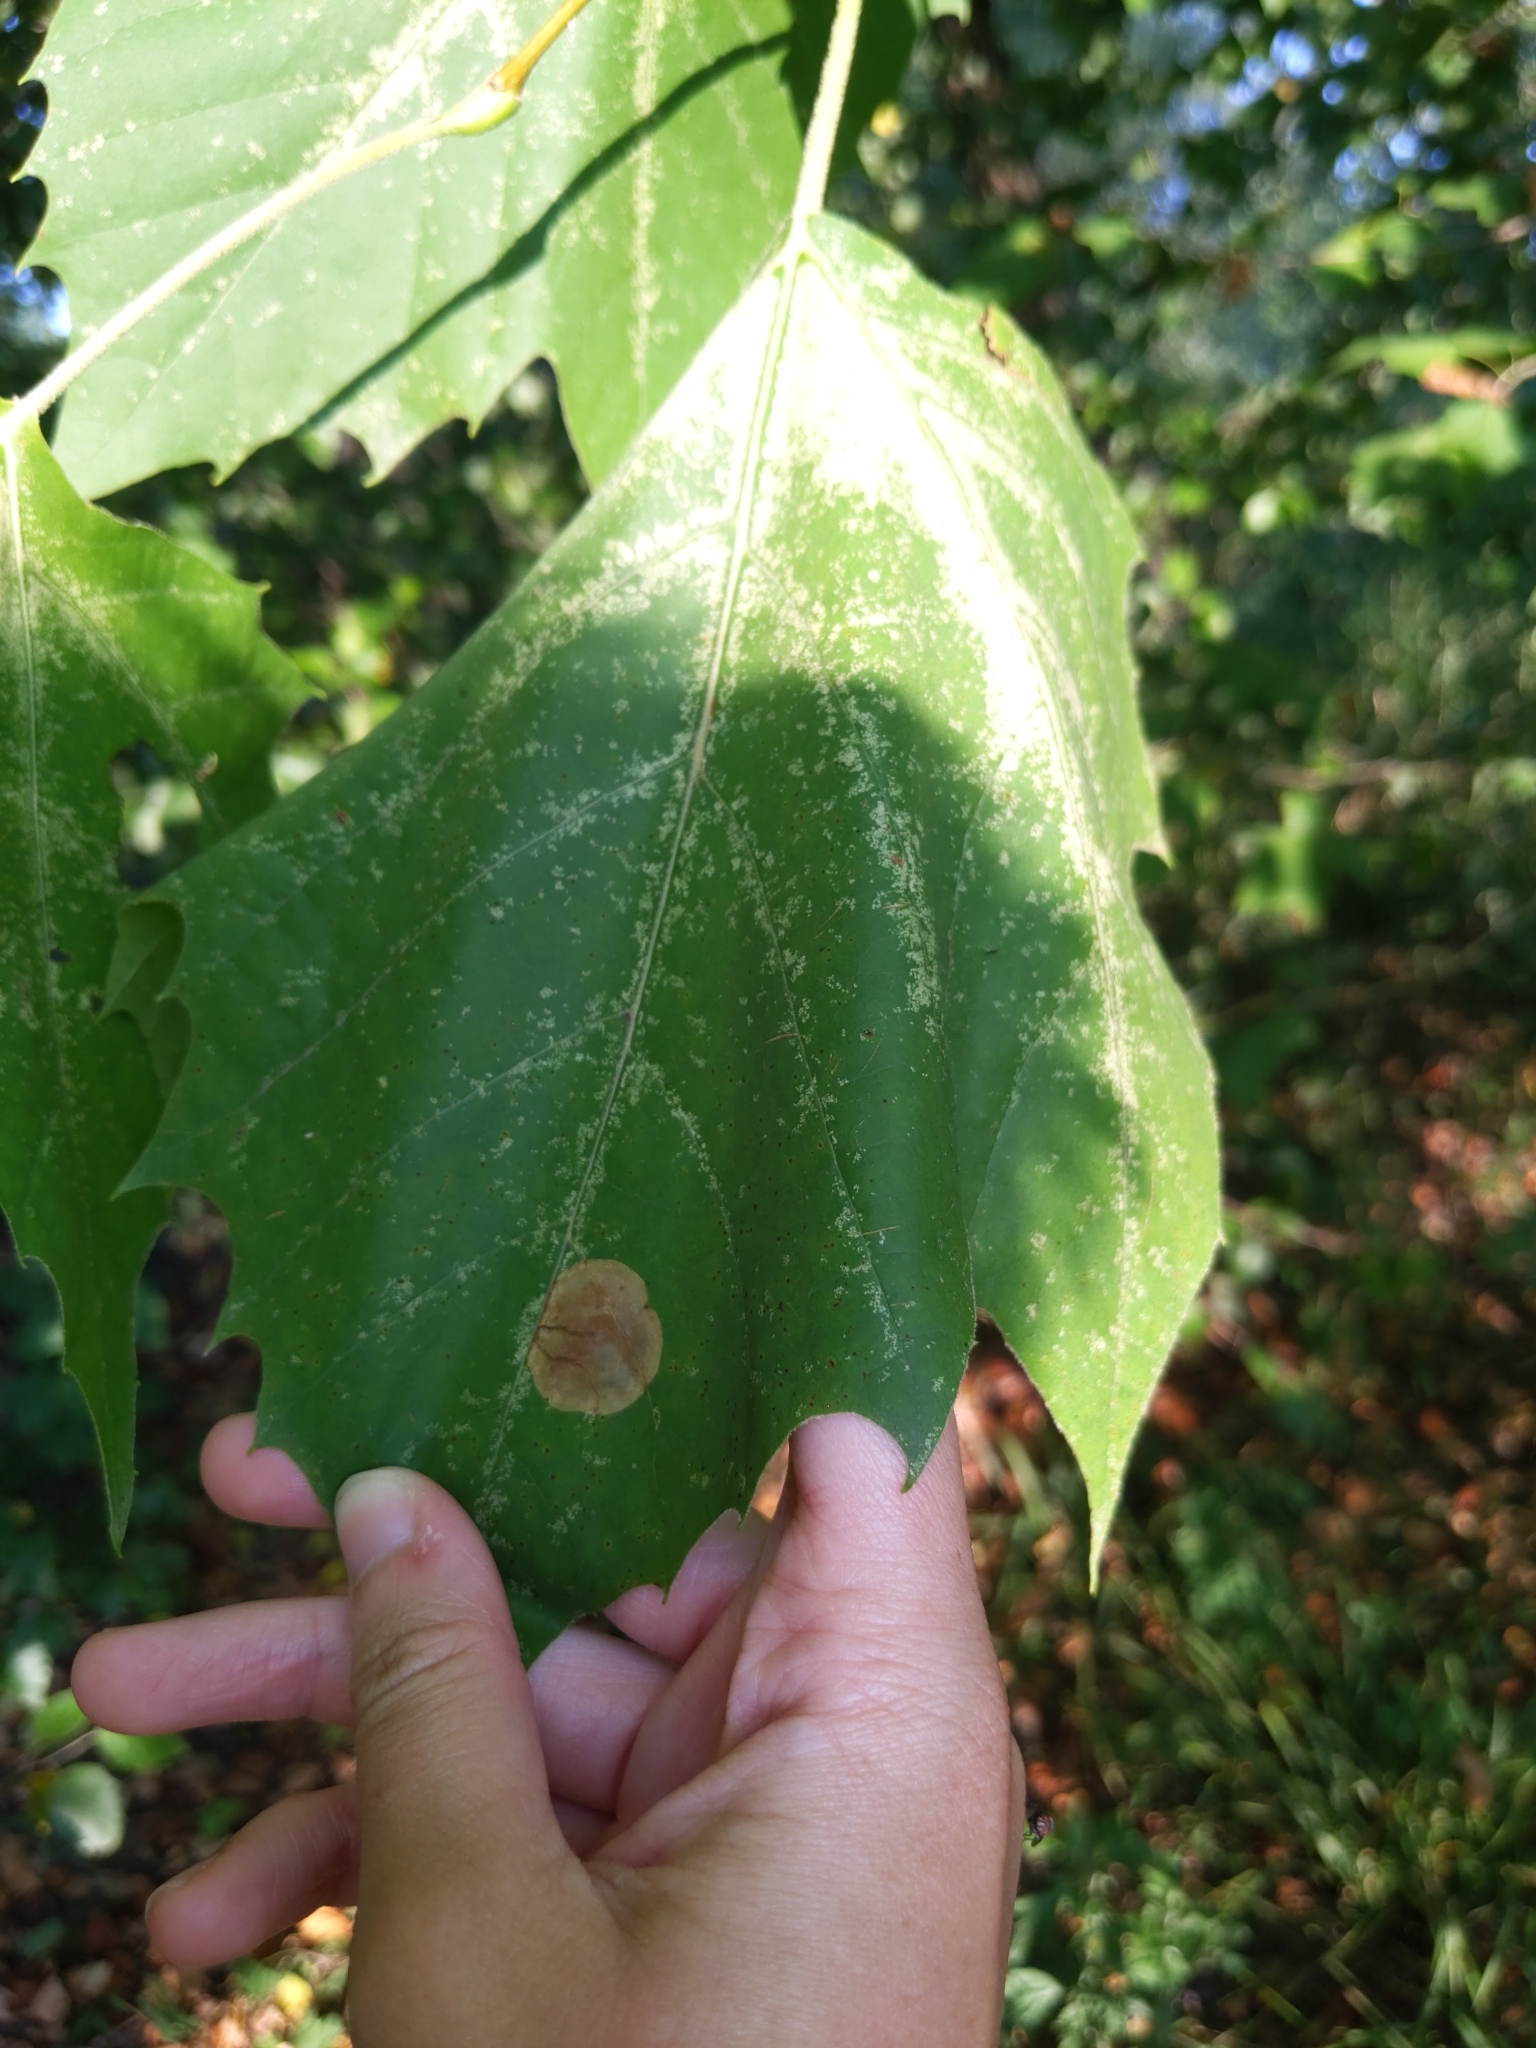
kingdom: Animalia
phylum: Arthropoda
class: Insecta
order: Lepidoptera
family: Nepticulidae
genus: Ectoedemia
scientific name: Ectoedemia platanella
